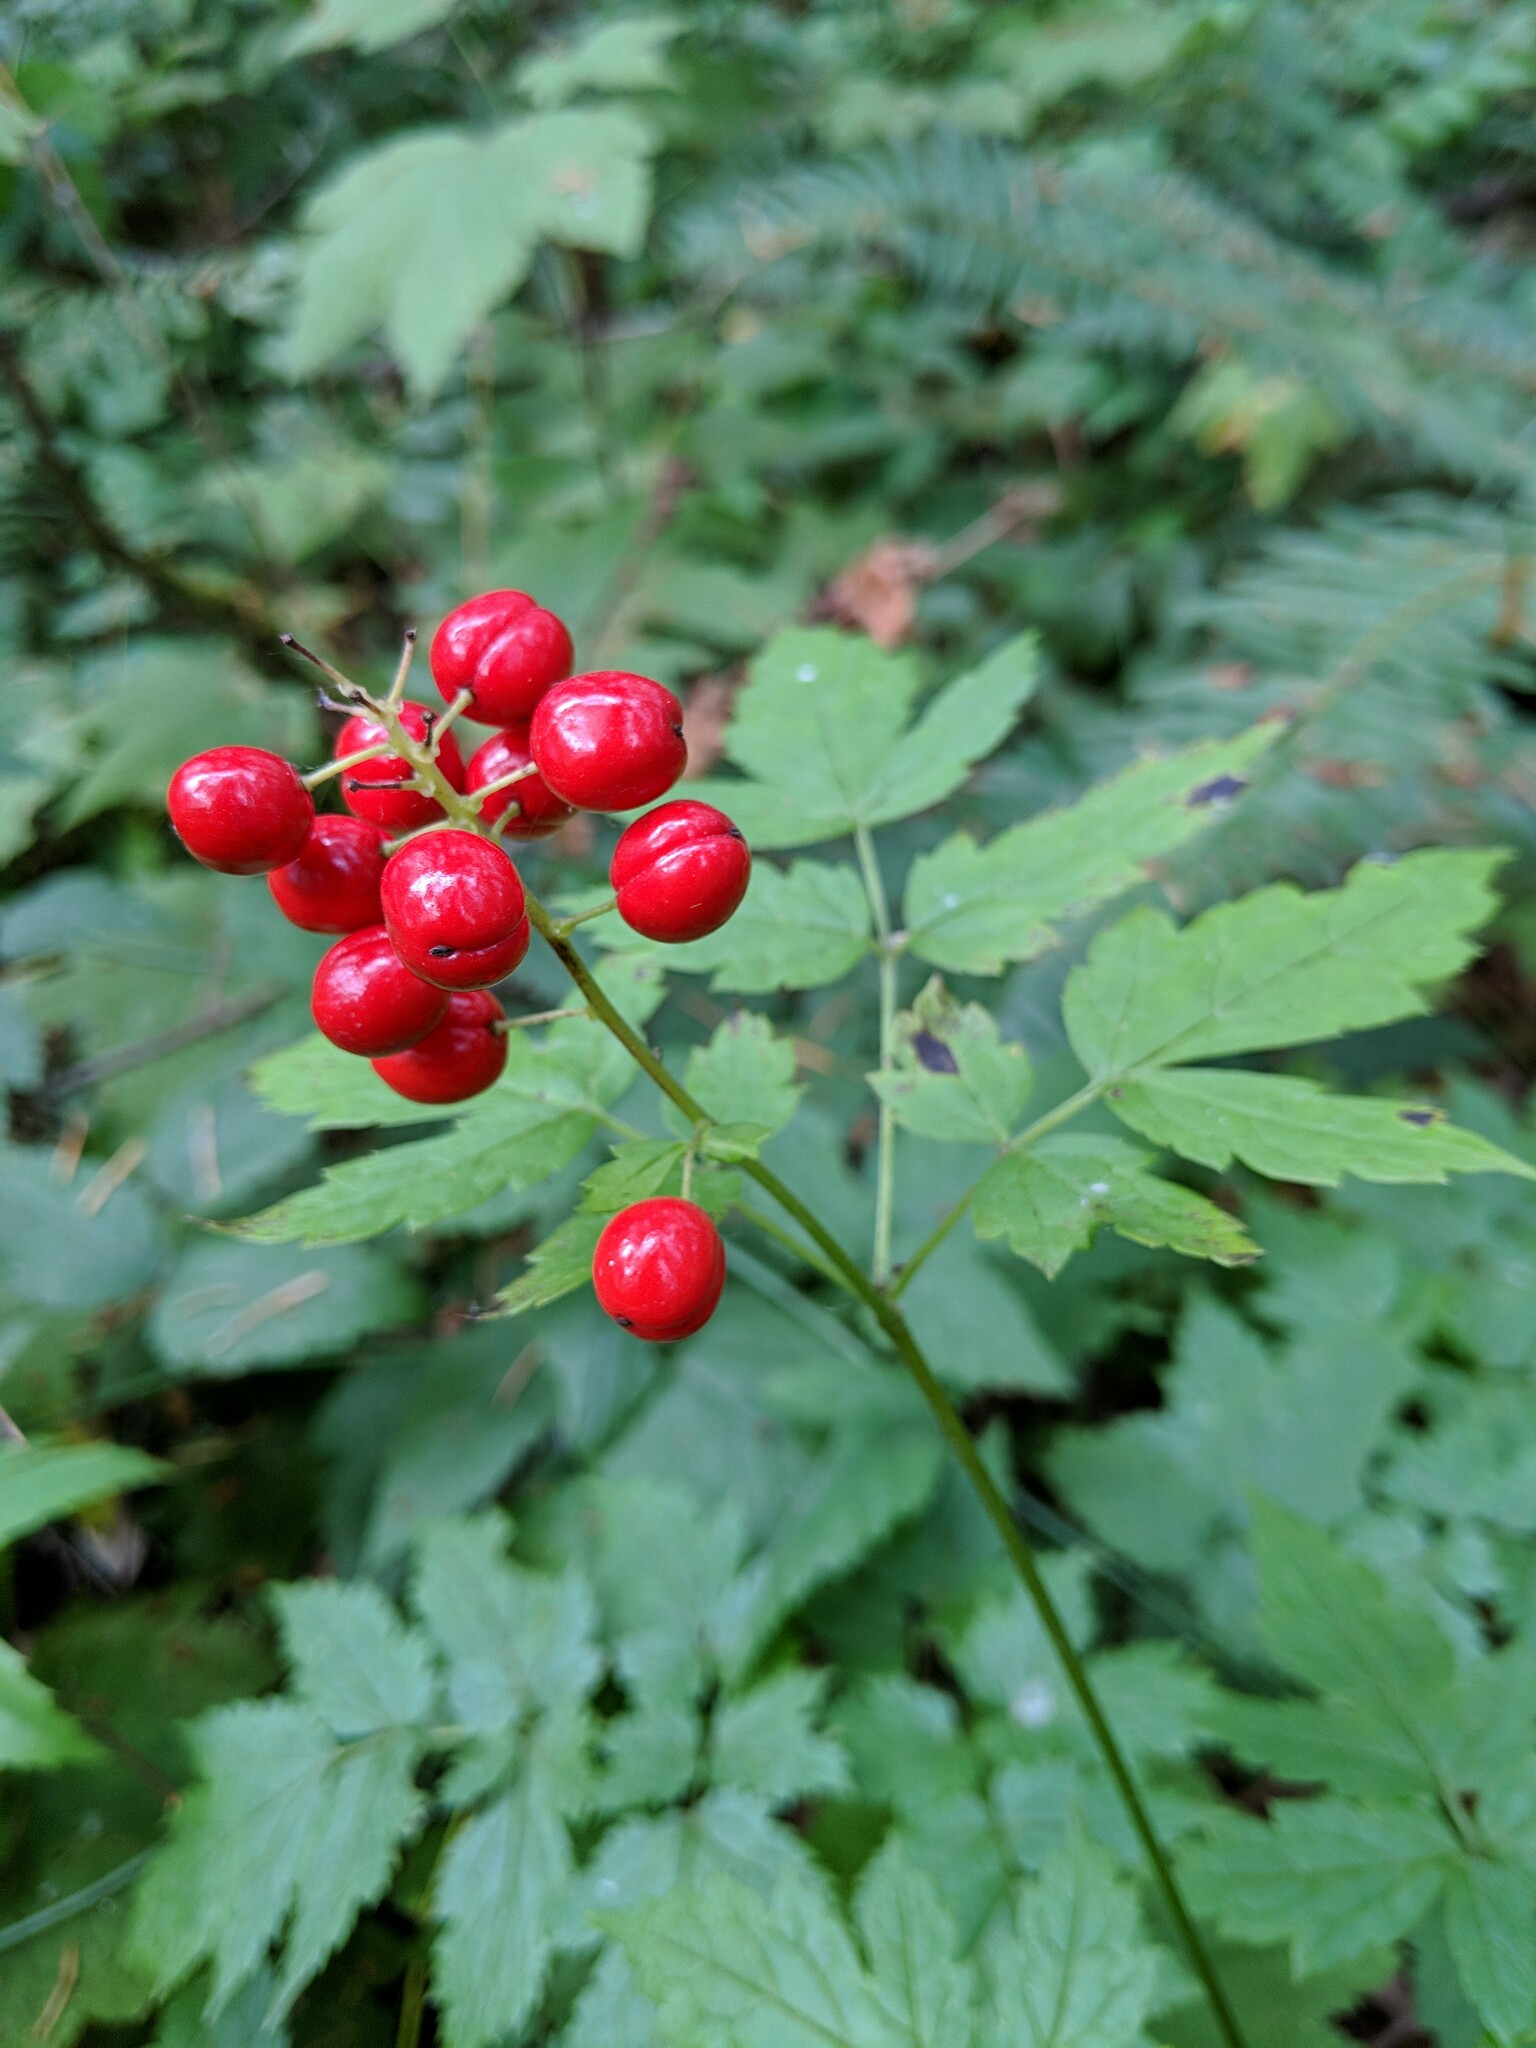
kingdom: Plantae
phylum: Tracheophyta
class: Magnoliopsida
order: Ranunculales
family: Ranunculaceae
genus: Actaea
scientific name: Actaea rubra
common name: Red baneberry
